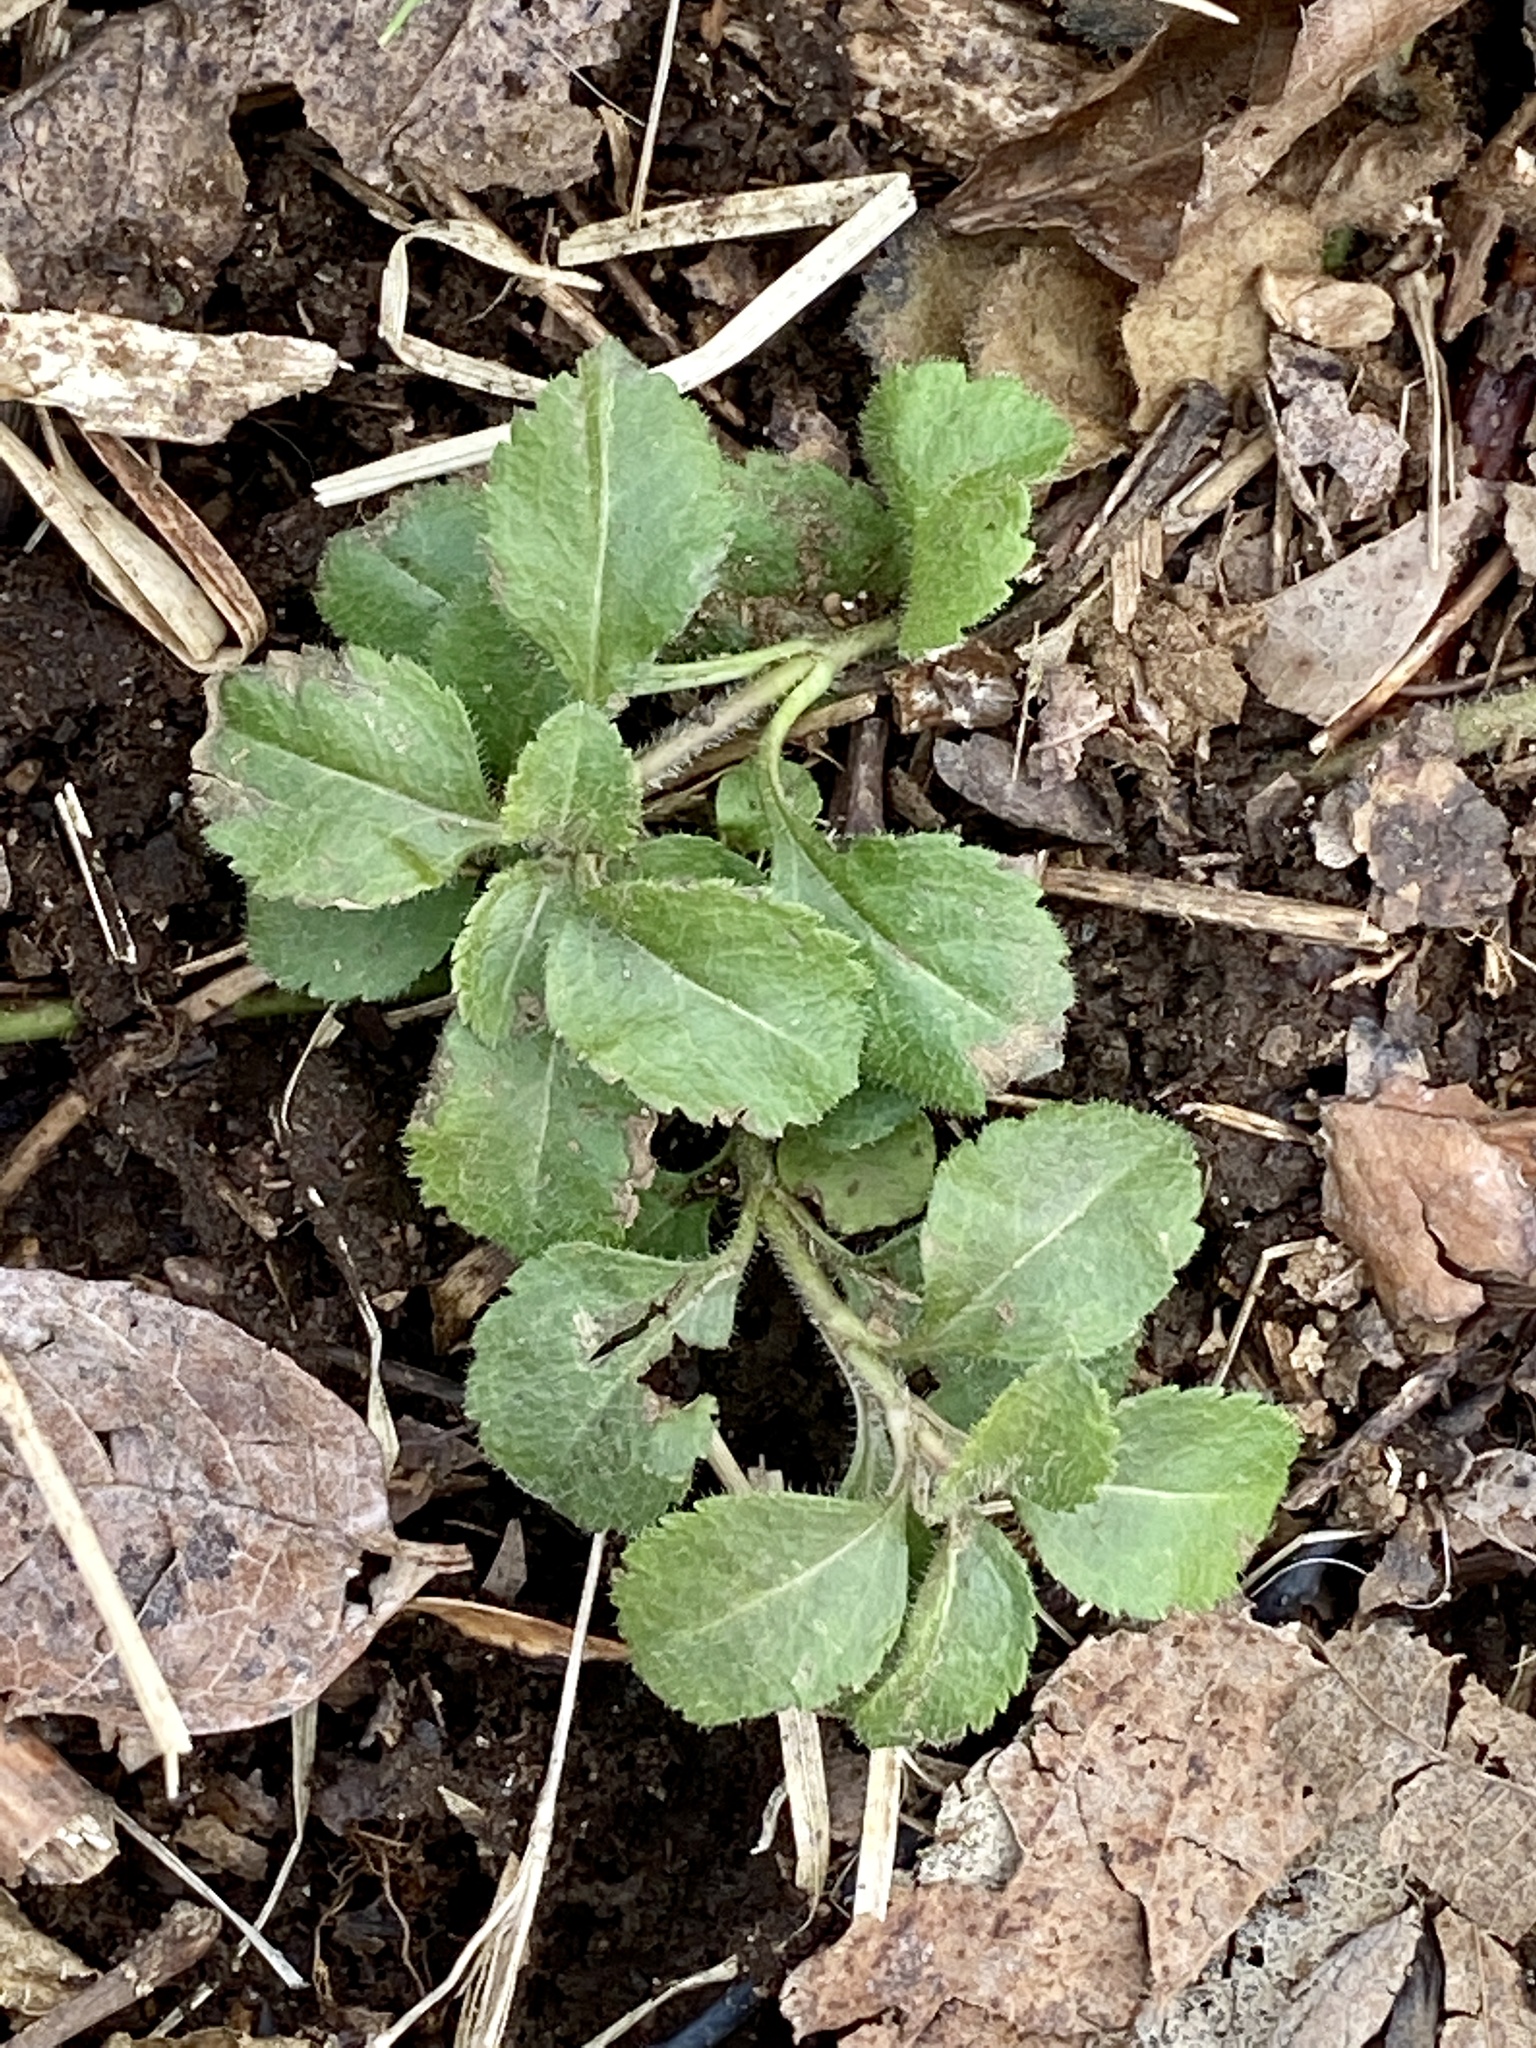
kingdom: Plantae
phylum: Tracheophyta
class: Magnoliopsida
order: Lamiales
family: Plantaginaceae
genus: Veronica
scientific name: Veronica officinalis
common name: Common speedwell
